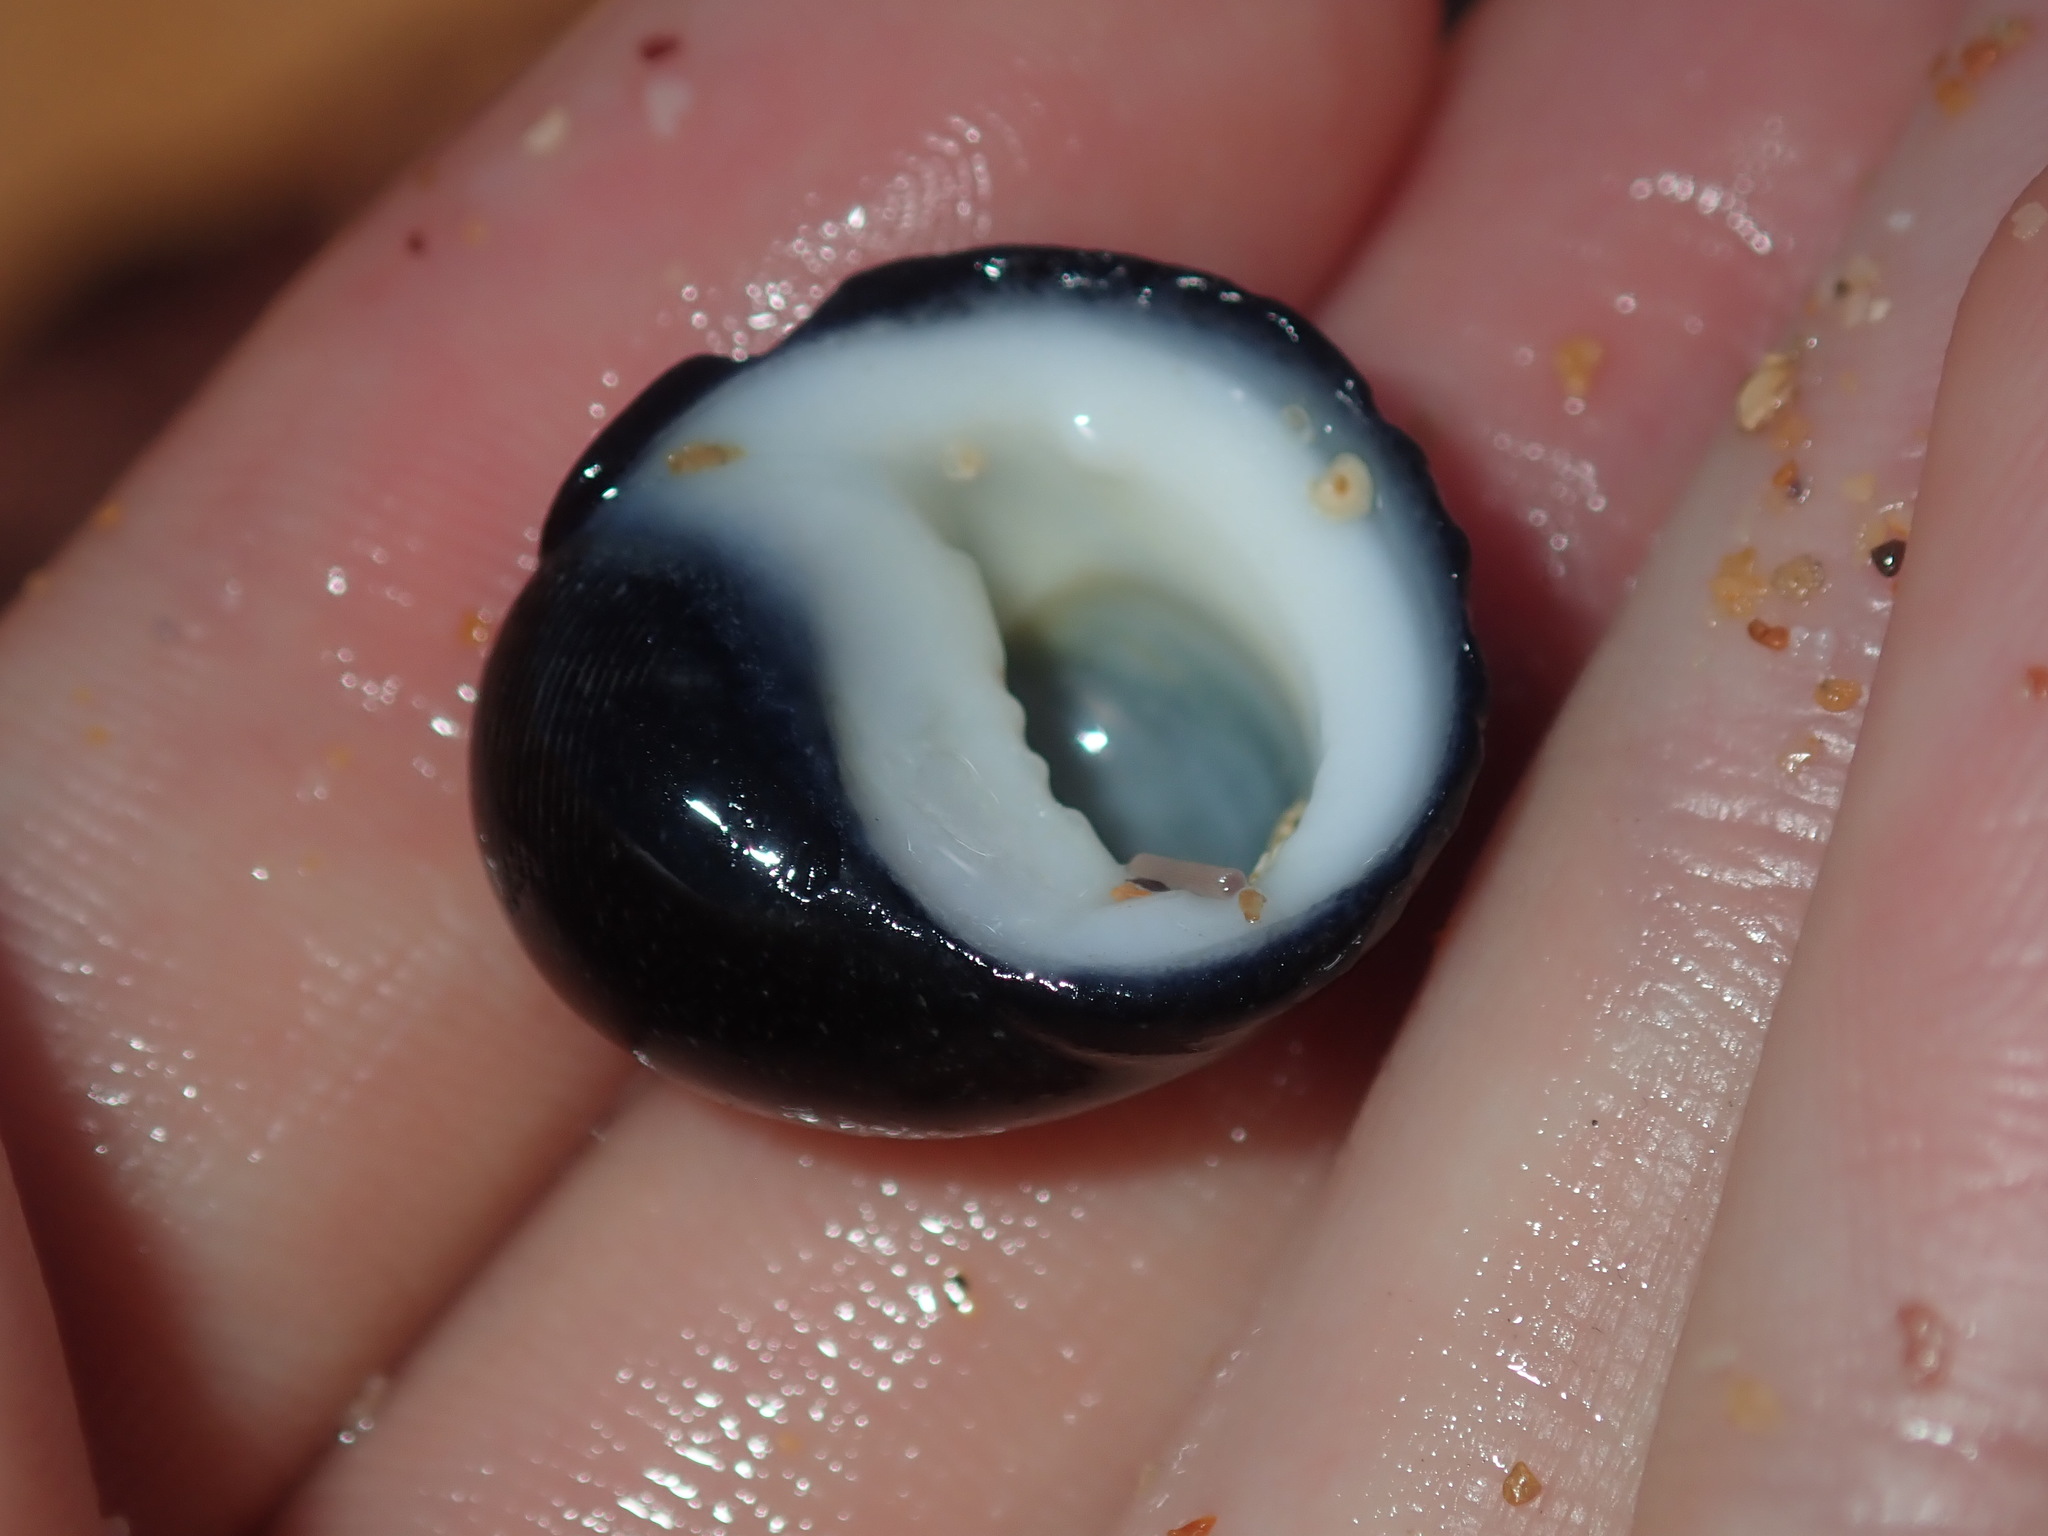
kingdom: Animalia
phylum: Mollusca
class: Gastropoda
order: Cycloneritida
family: Neritidae
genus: Nerita
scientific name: Nerita melanotragus
